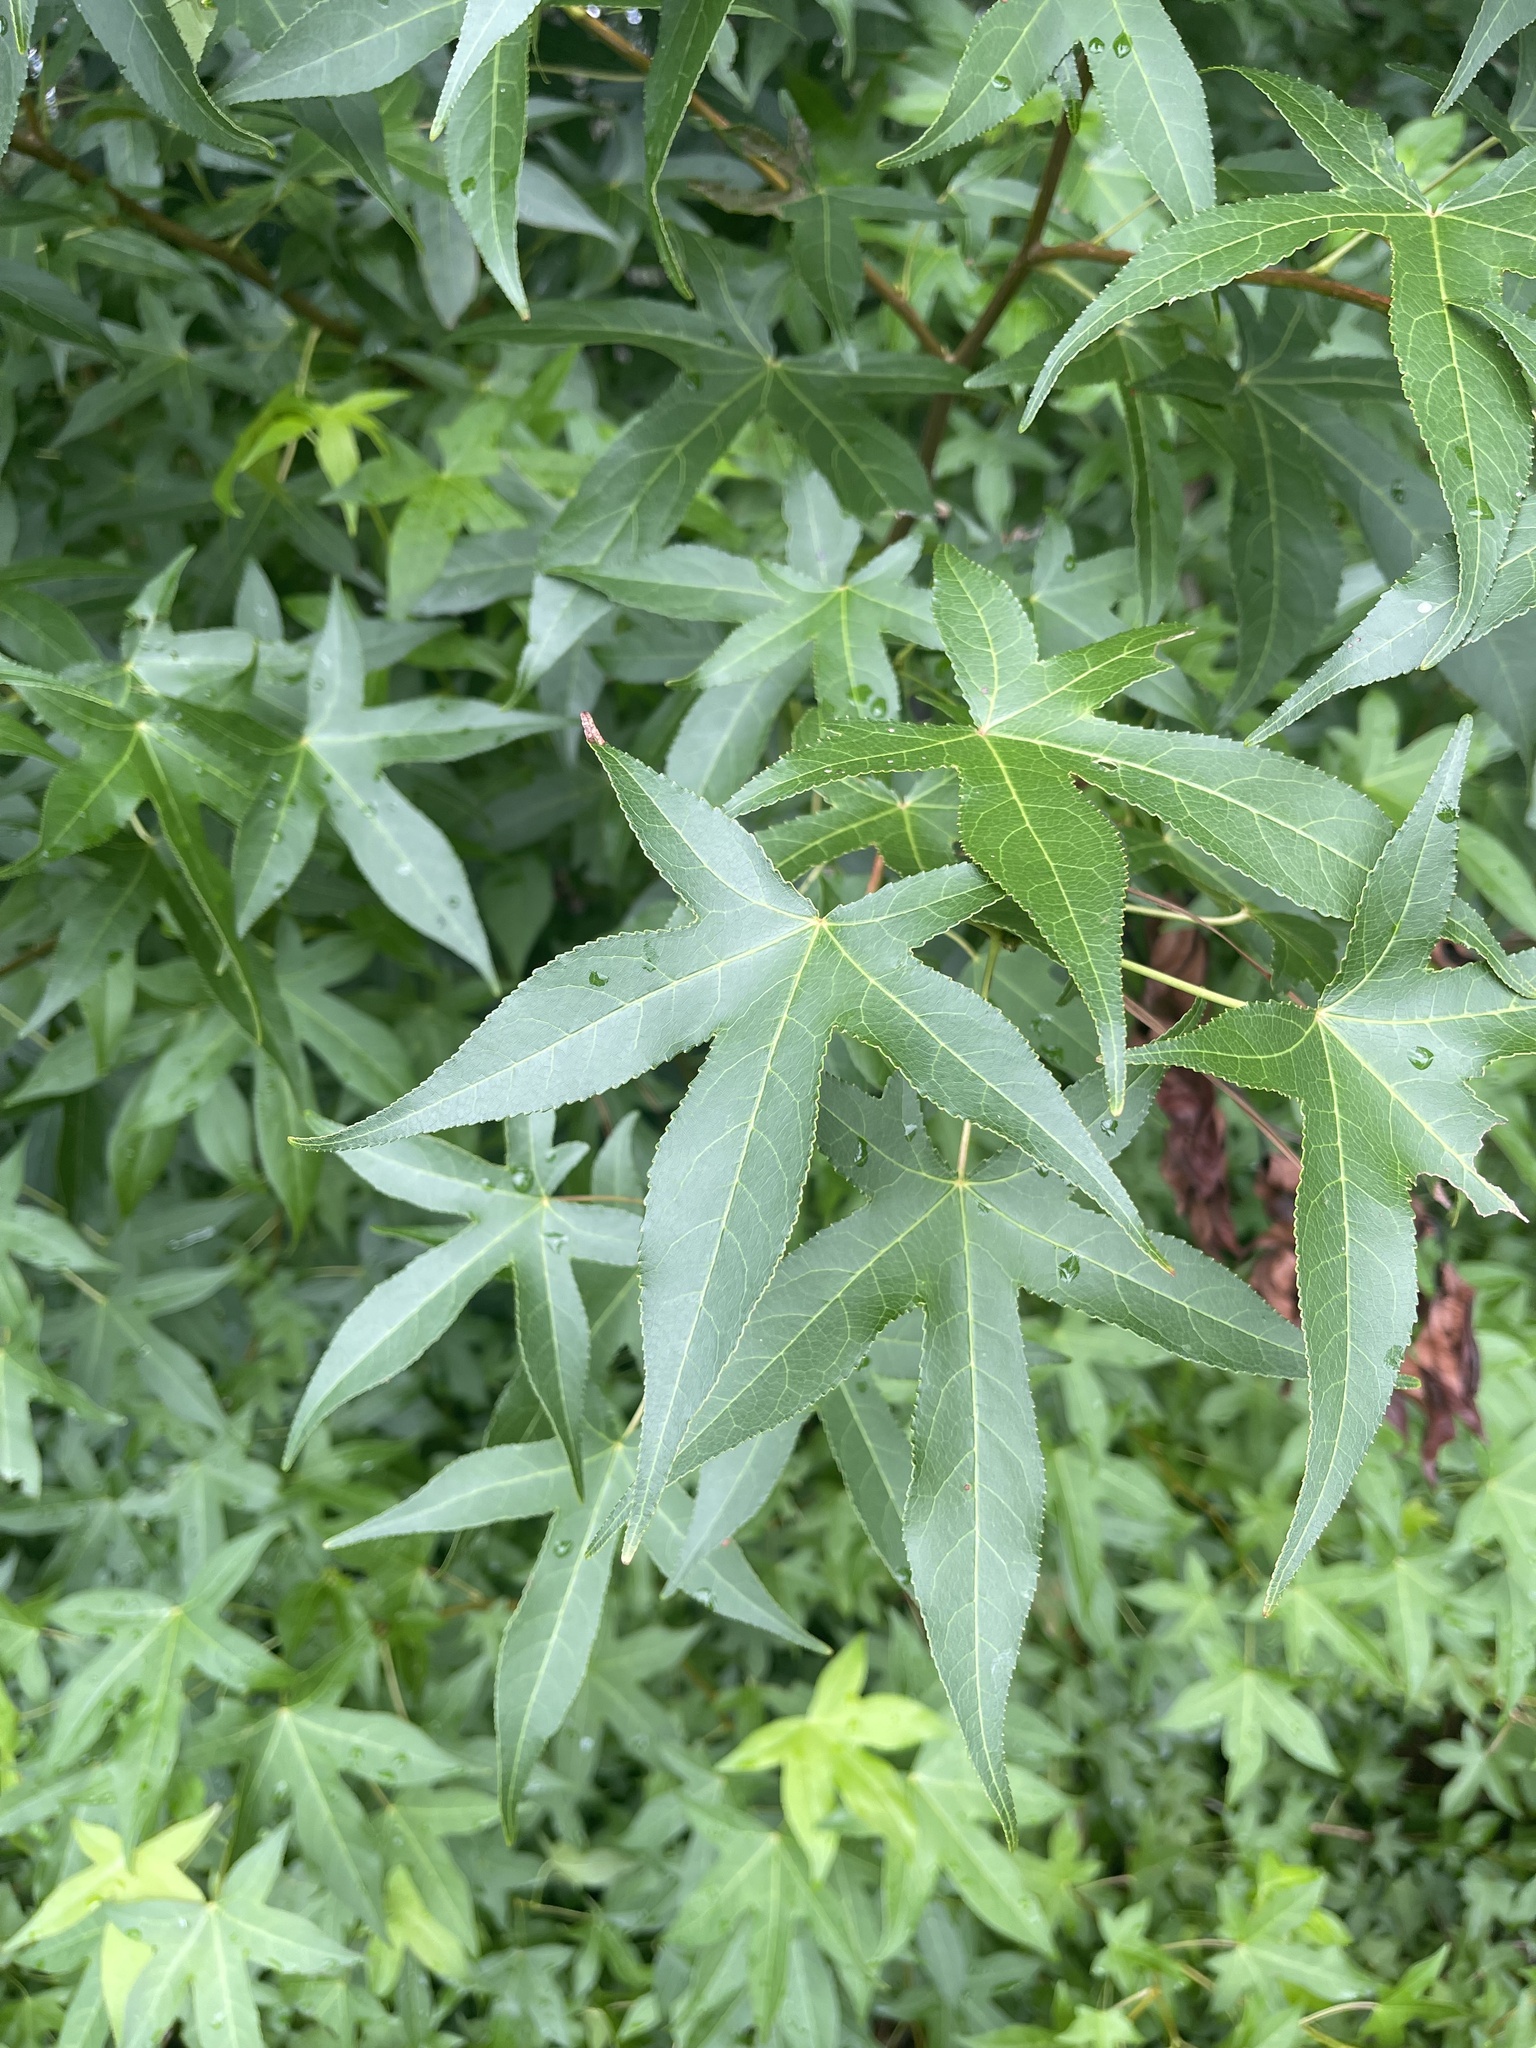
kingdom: Plantae
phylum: Tracheophyta
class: Magnoliopsida
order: Saxifragales
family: Altingiaceae
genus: Liquidambar
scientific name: Liquidambar styraciflua
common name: Sweet gum
